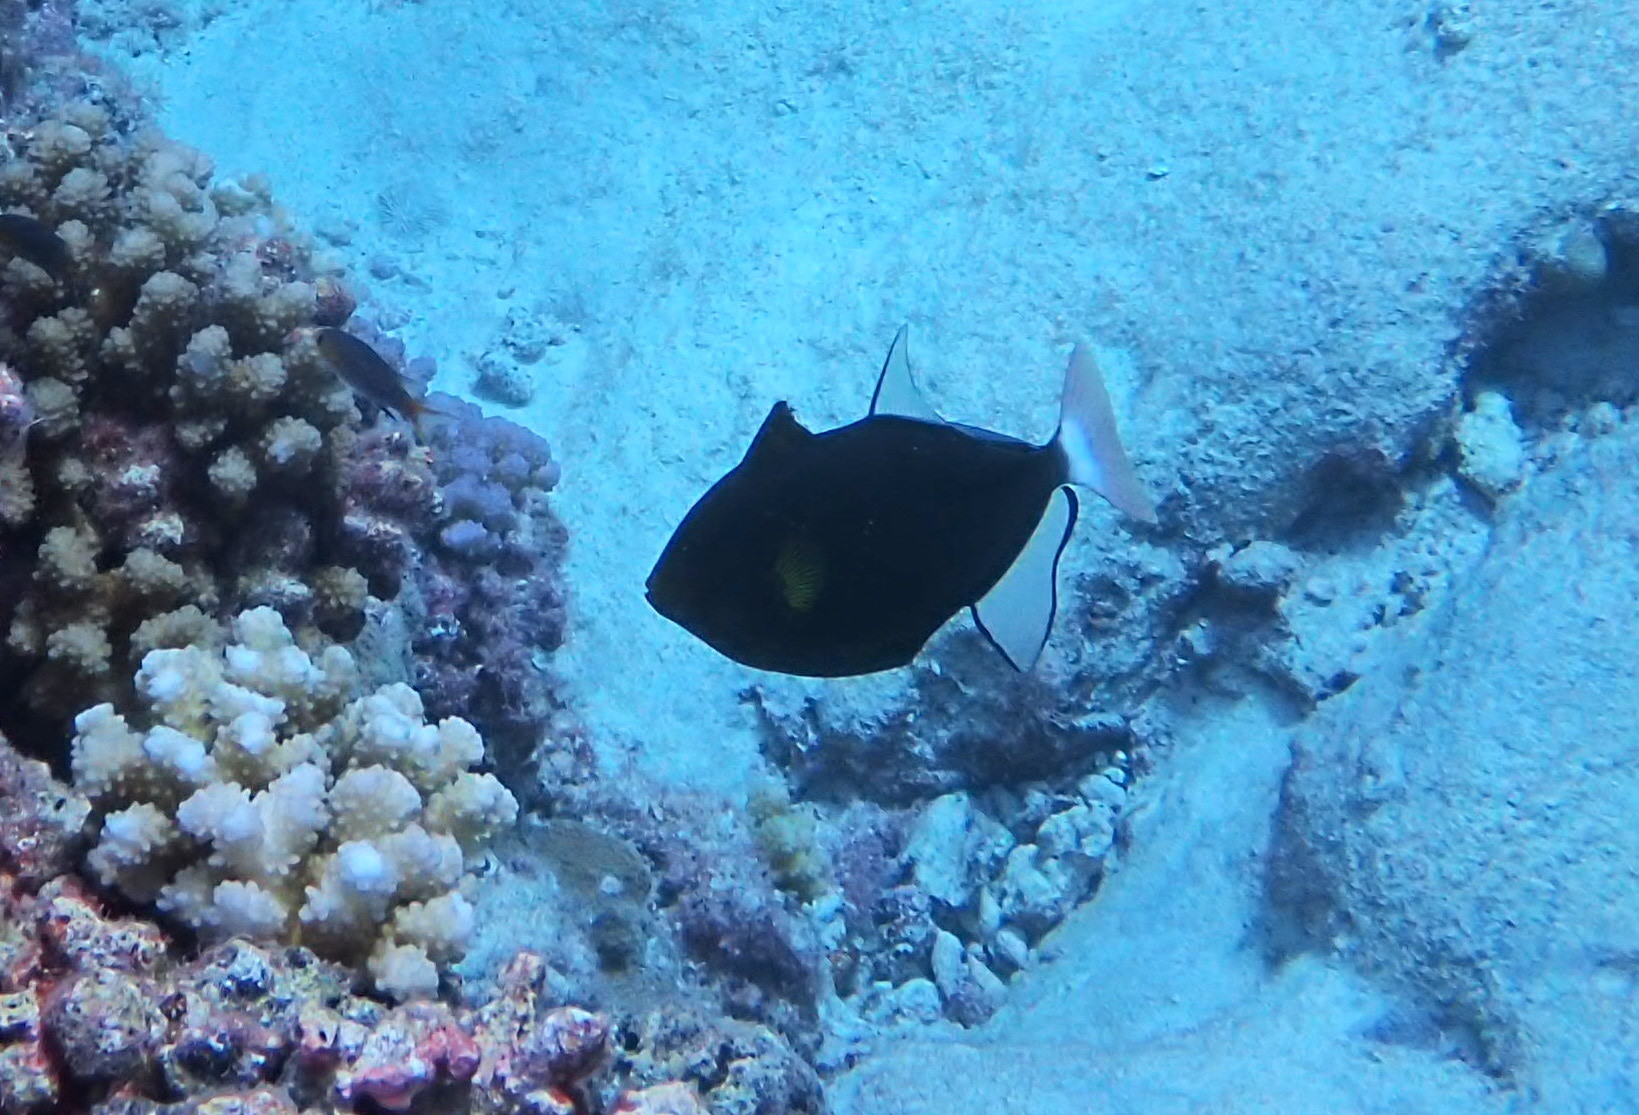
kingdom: Animalia
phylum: Chordata
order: Tetraodontiformes
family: Balistidae
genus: Melichthys
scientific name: Melichthys vidua
